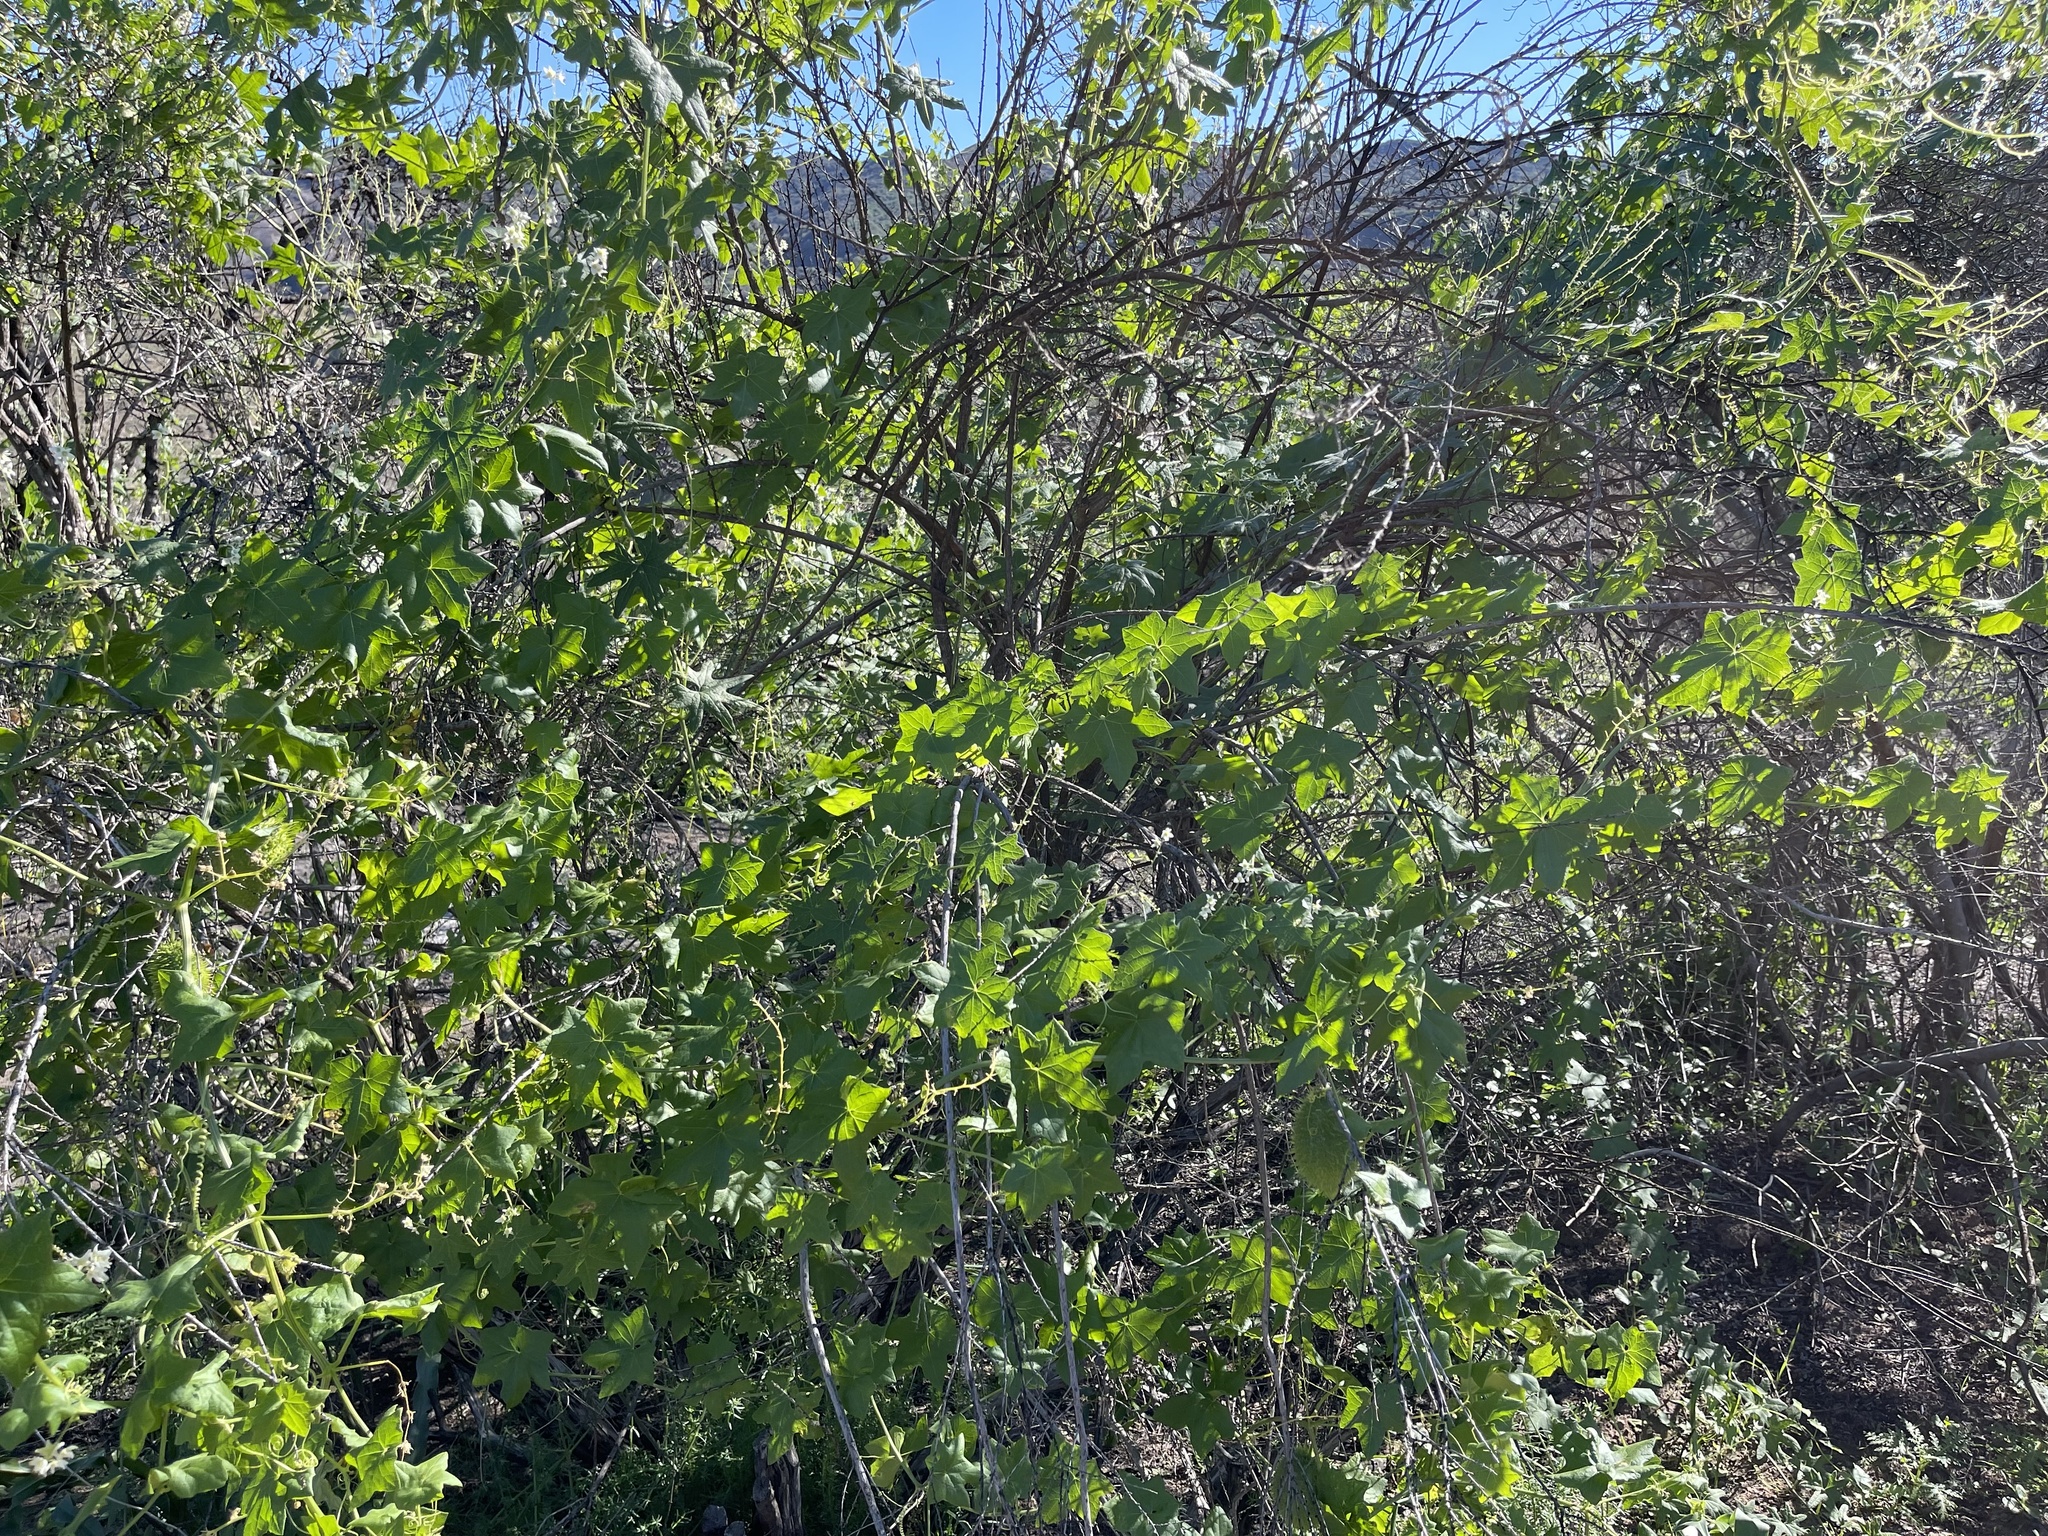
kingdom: Plantae
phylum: Tracheophyta
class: Magnoliopsida
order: Cucurbitales
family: Cucurbitaceae
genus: Marah
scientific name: Marah macrocarpa
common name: Cucamonga manroot
